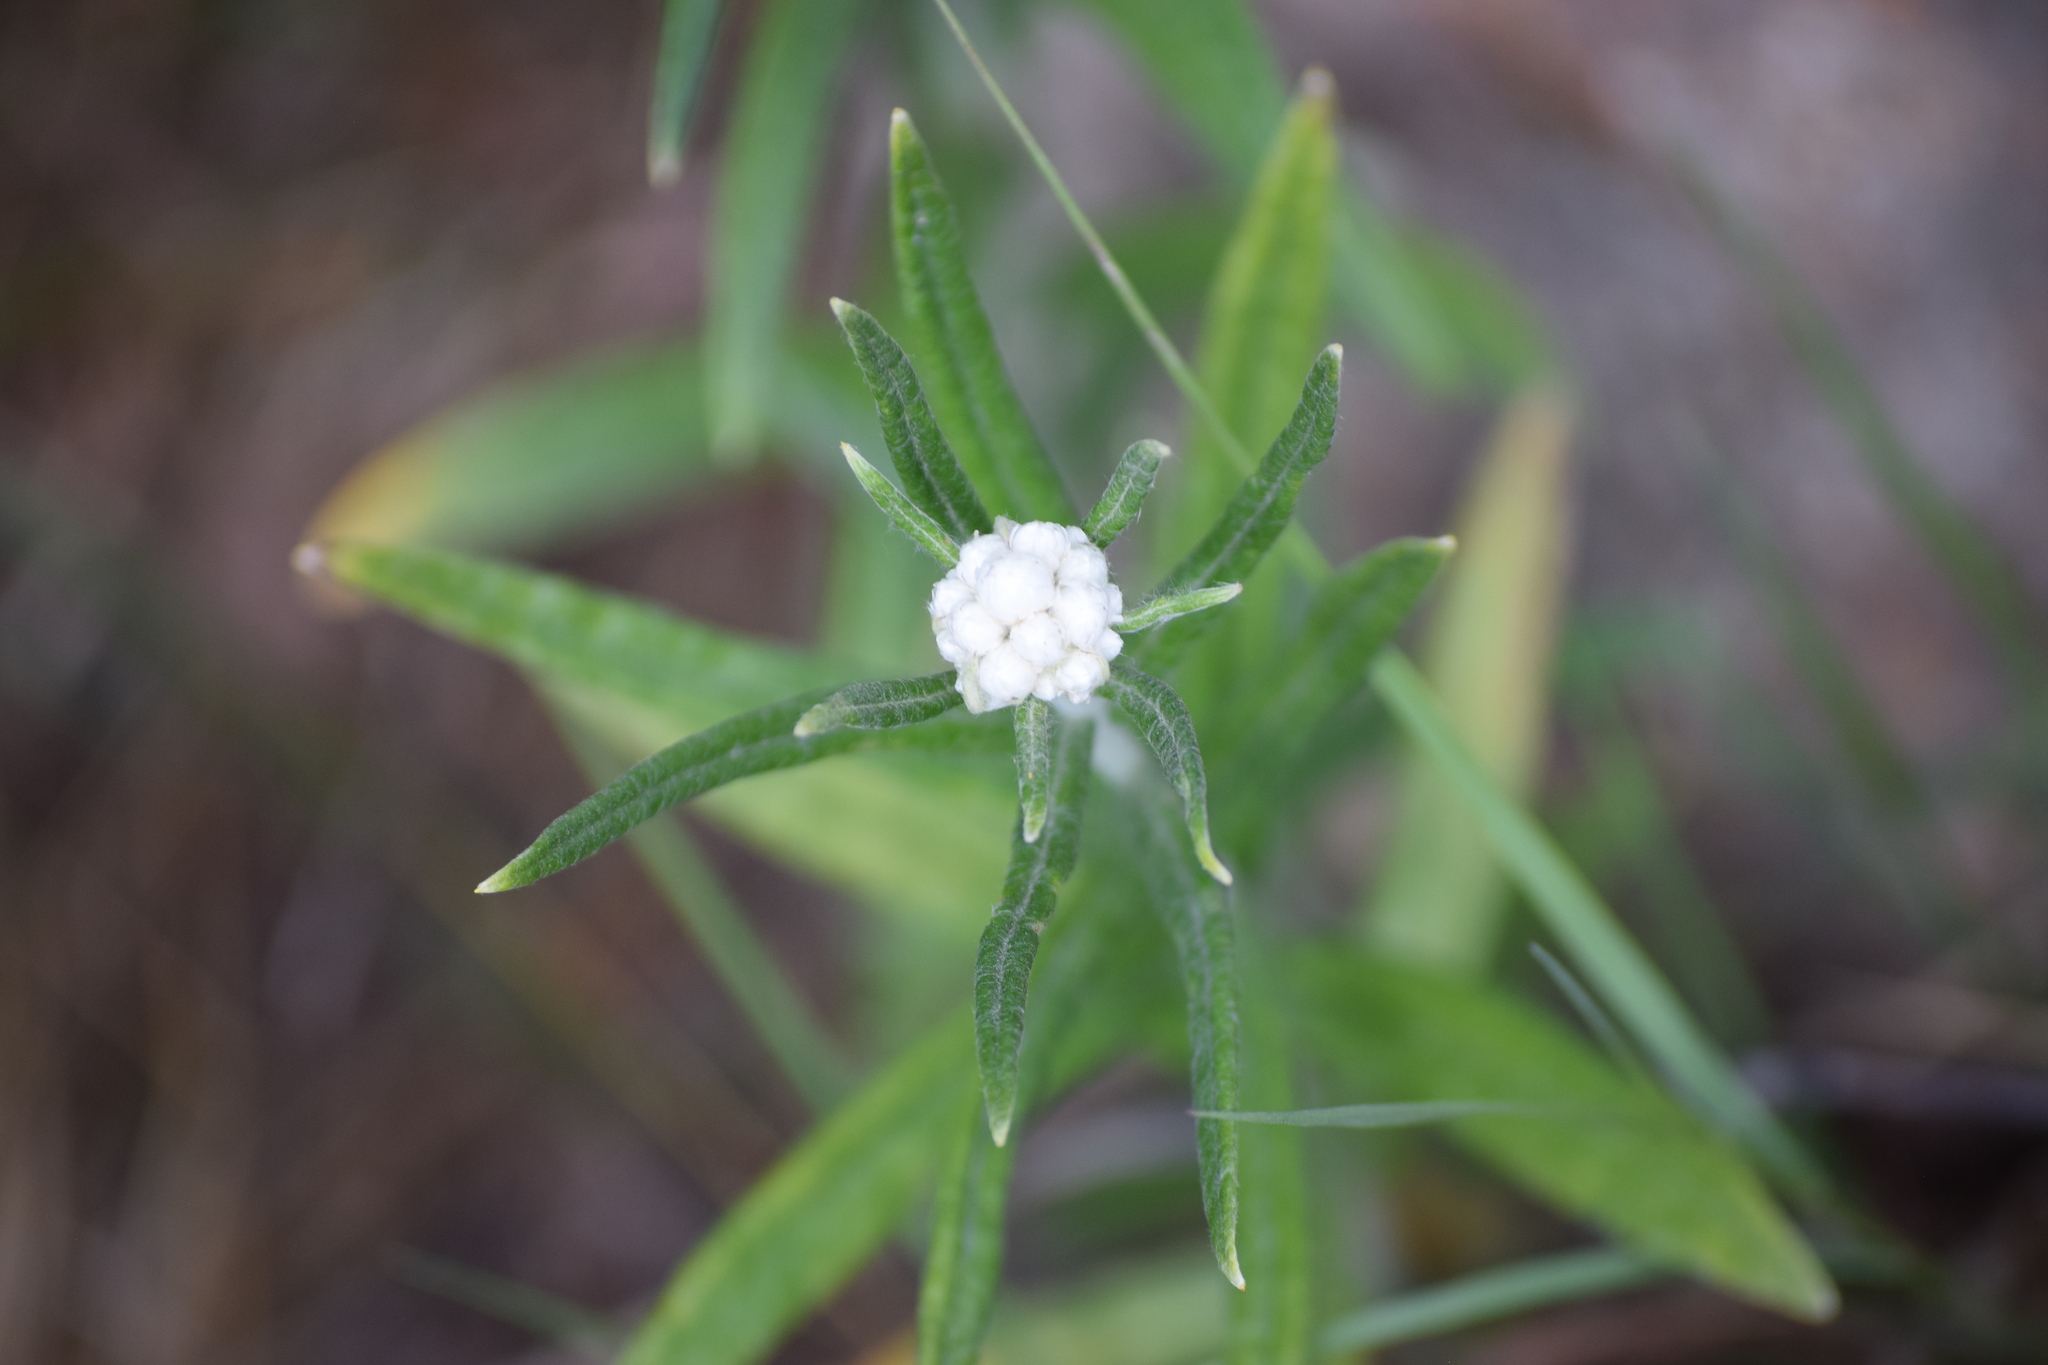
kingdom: Plantae
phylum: Tracheophyta
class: Magnoliopsida
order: Asterales
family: Asteraceae
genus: Anaphalis
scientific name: Anaphalis margaritacea
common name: Pearly everlasting
